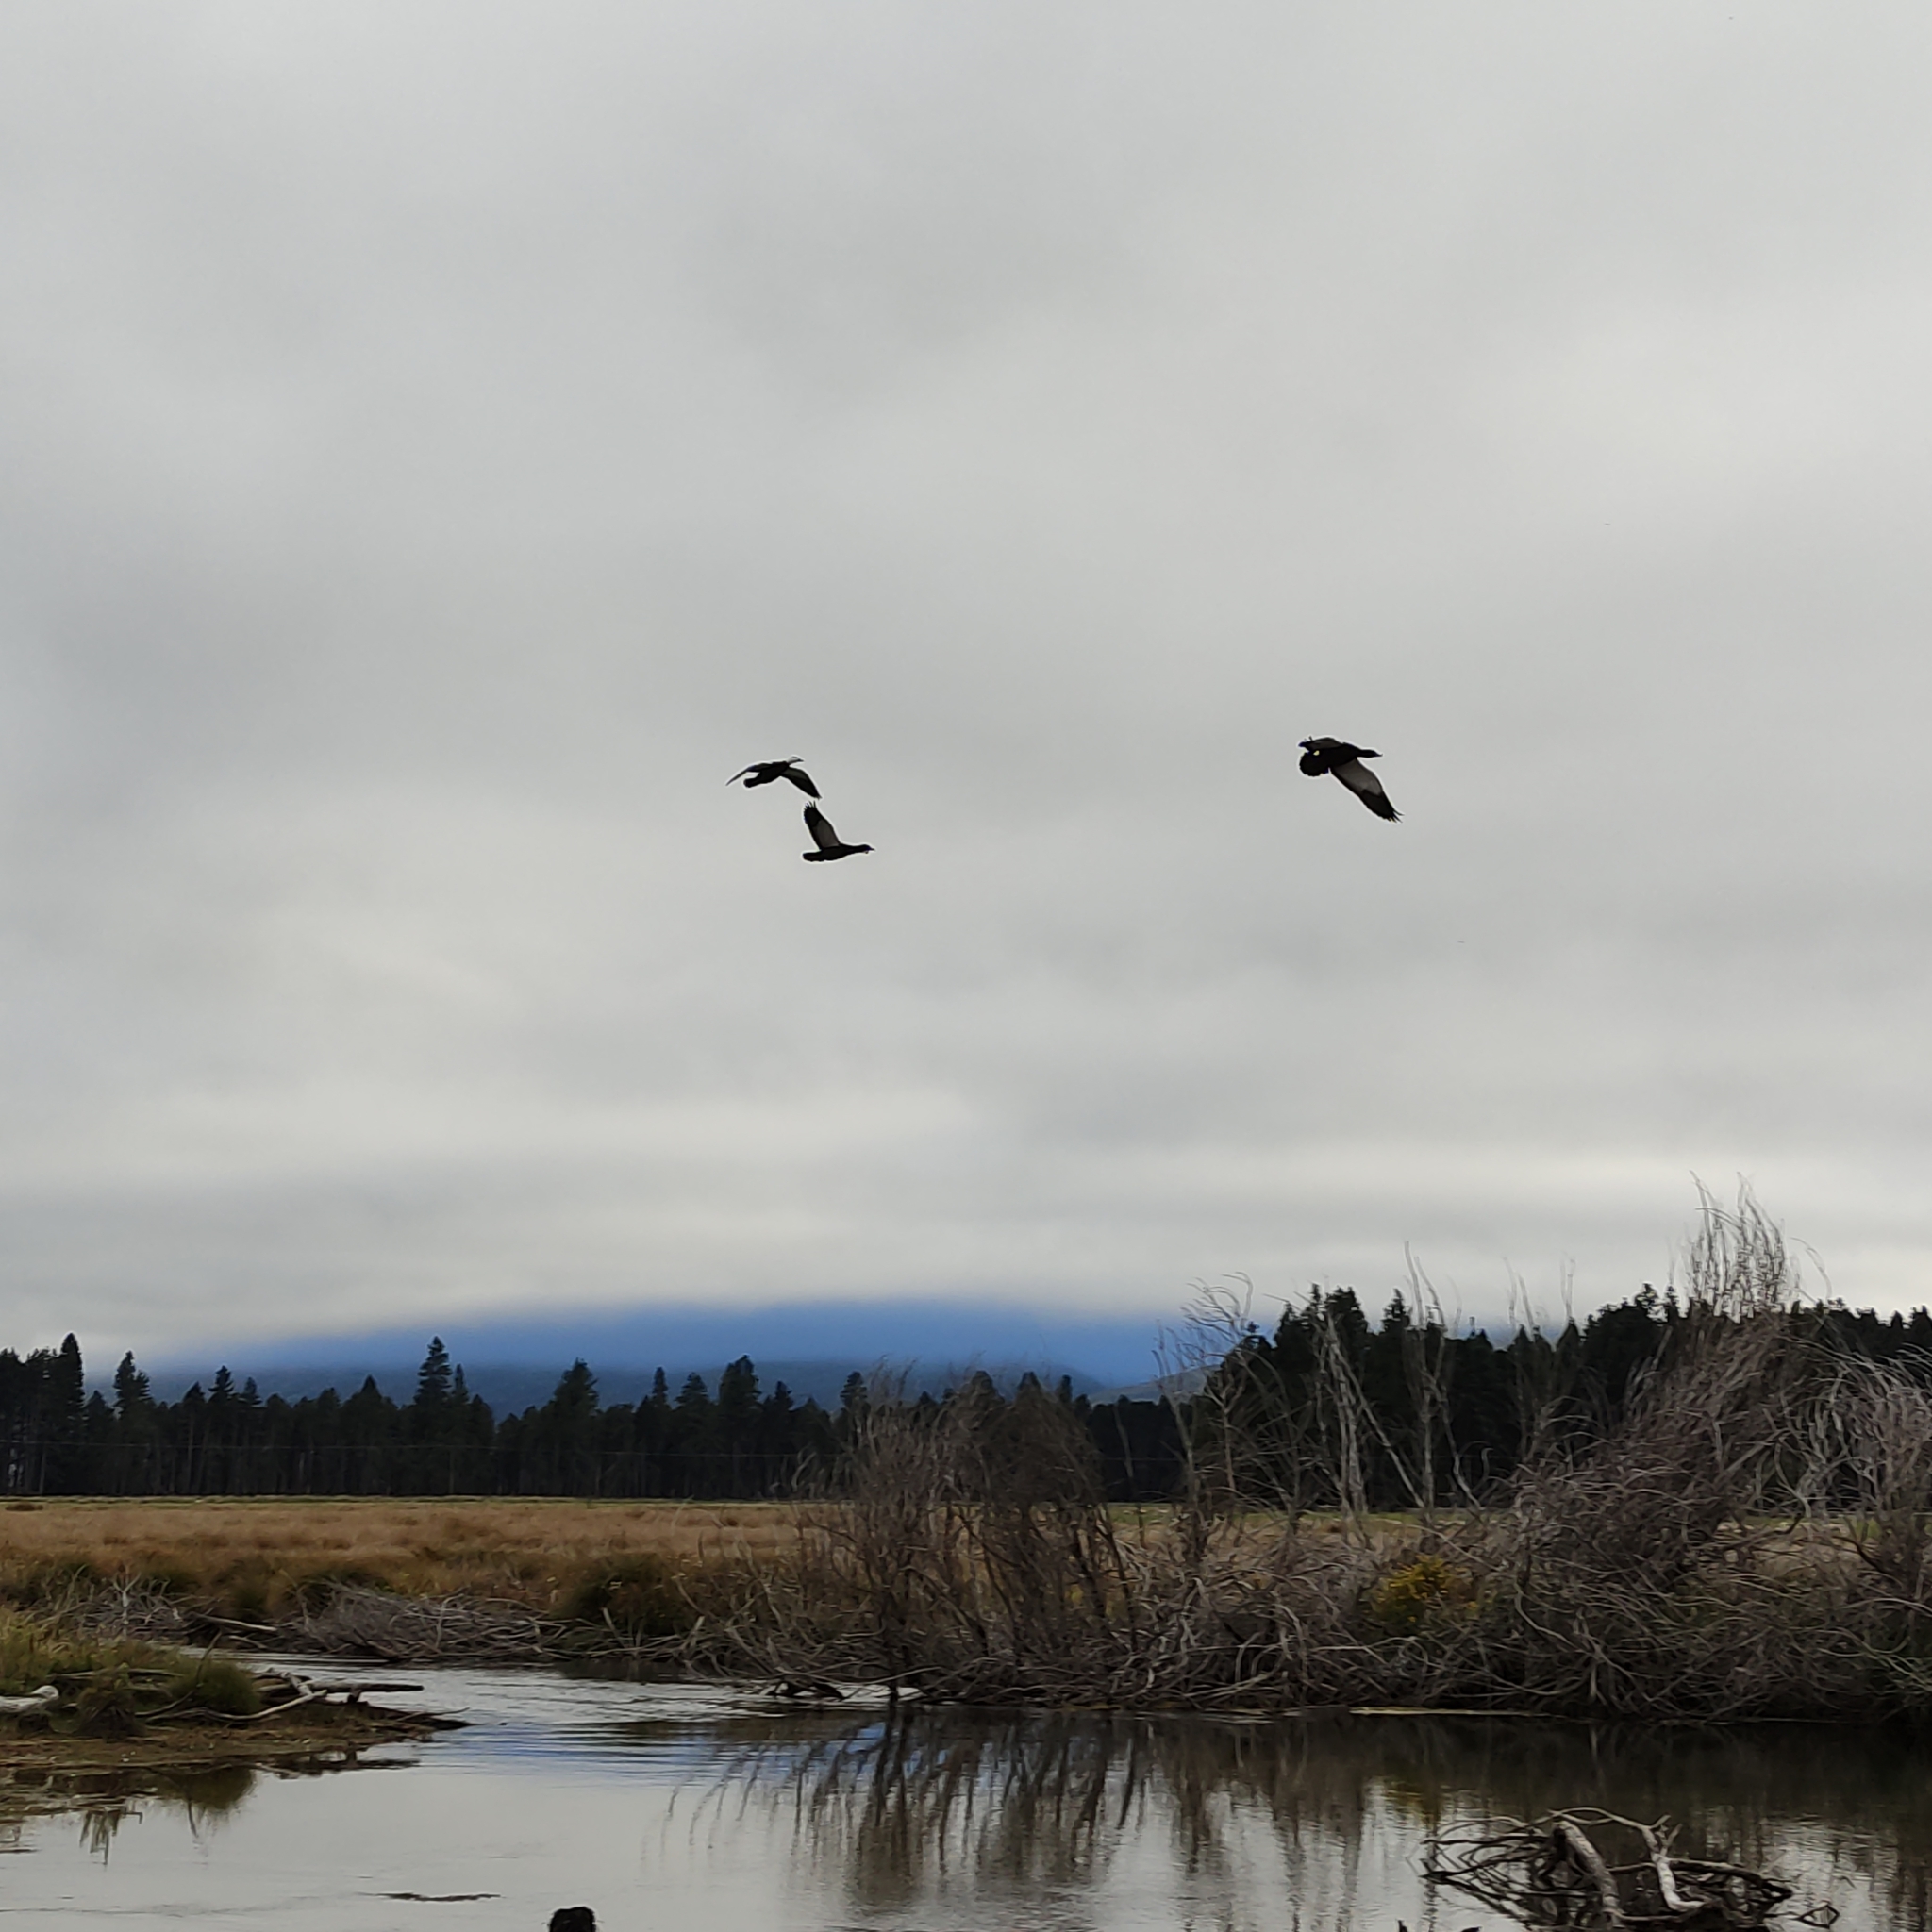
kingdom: Animalia
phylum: Chordata
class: Aves
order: Anseriformes
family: Anatidae
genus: Tadorna
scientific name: Tadorna variegata
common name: Paradise shelduck
